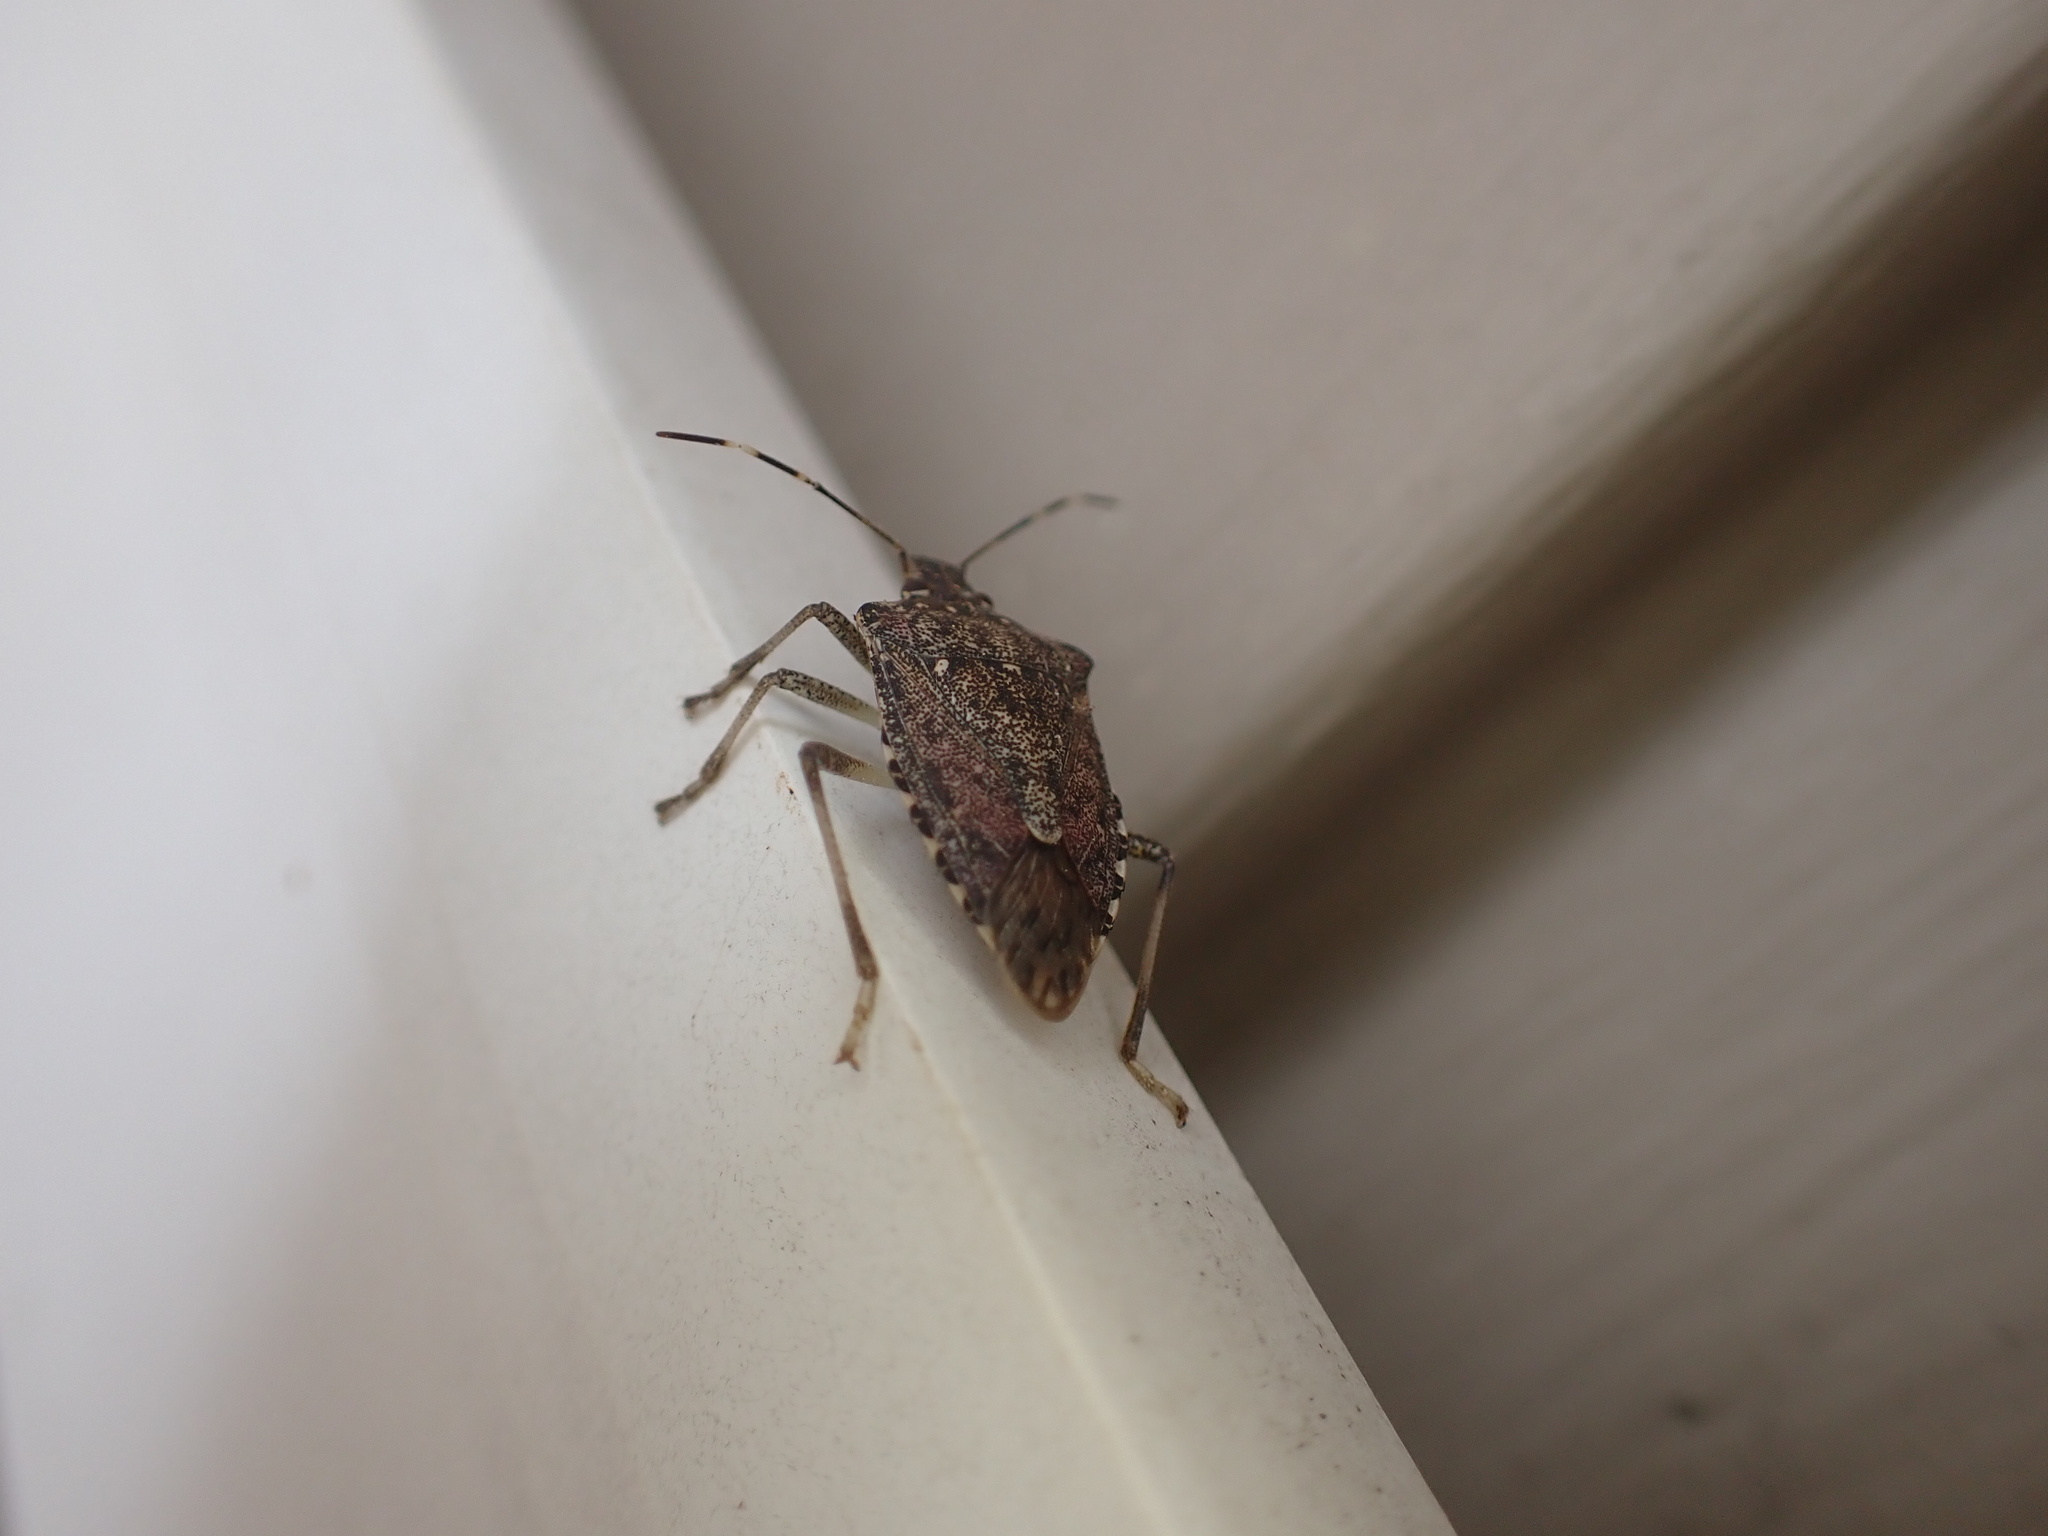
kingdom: Animalia
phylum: Arthropoda
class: Insecta
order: Hemiptera
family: Pentatomidae
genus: Halyomorpha
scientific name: Halyomorpha halys
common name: Brown marmorated stink bug
